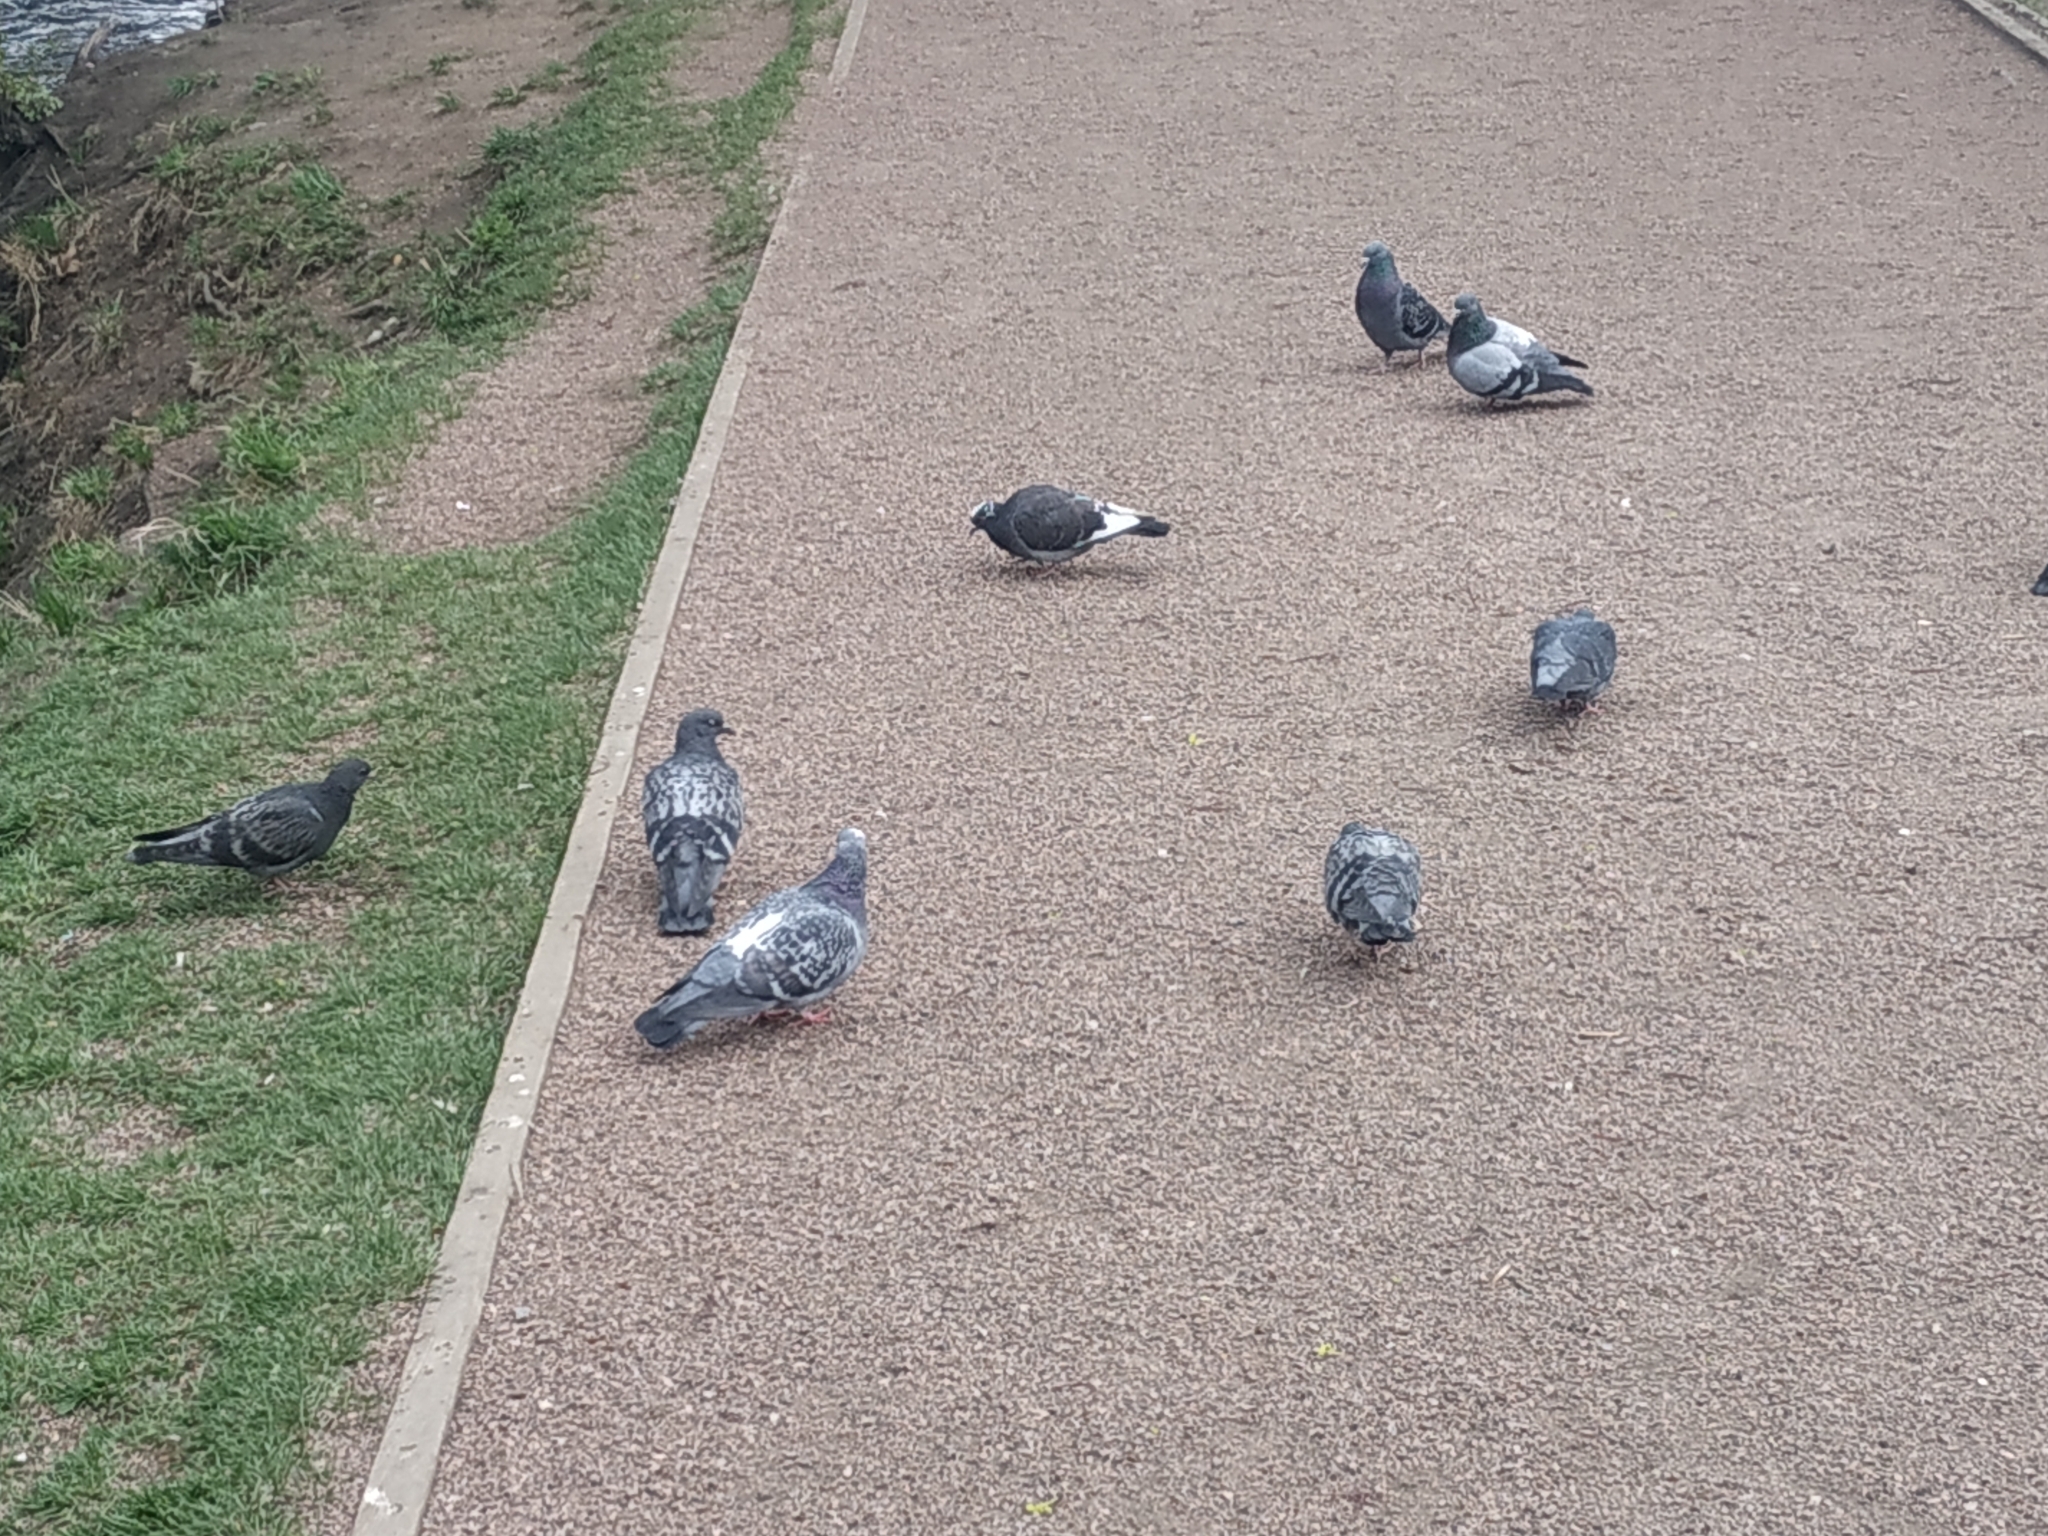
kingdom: Animalia
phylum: Chordata
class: Aves
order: Columbiformes
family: Columbidae
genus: Columba
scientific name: Columba livia
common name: Rock pigeon
